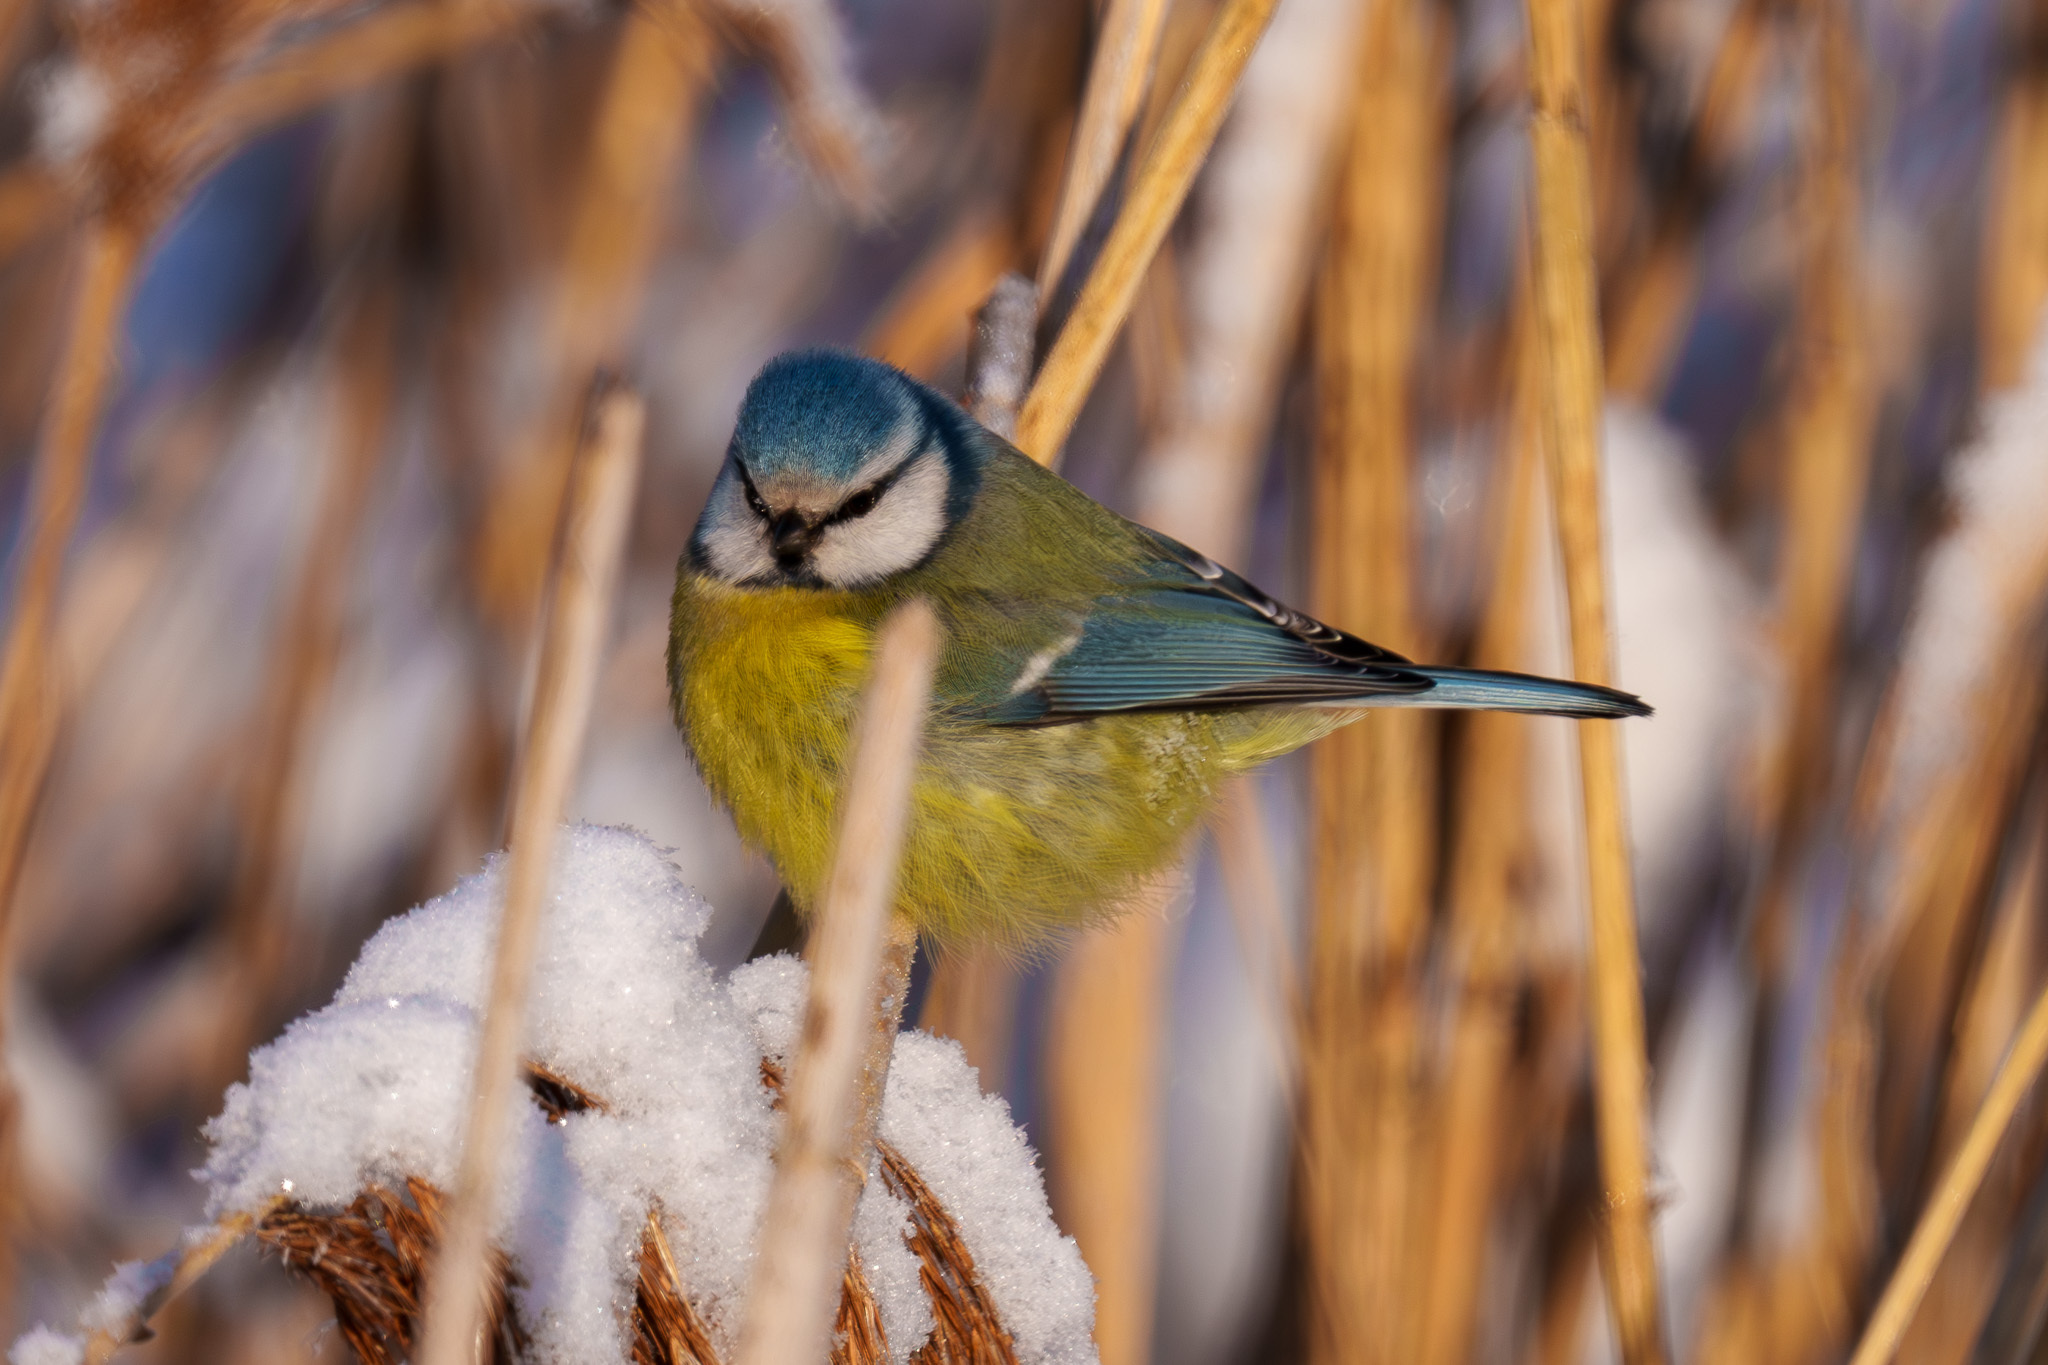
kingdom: Animalia
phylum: Chordata
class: Aves
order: Passeriformes
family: Paridae
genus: Cyanistes
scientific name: Cyanistes caeruleus
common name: Eurasian blue tit
